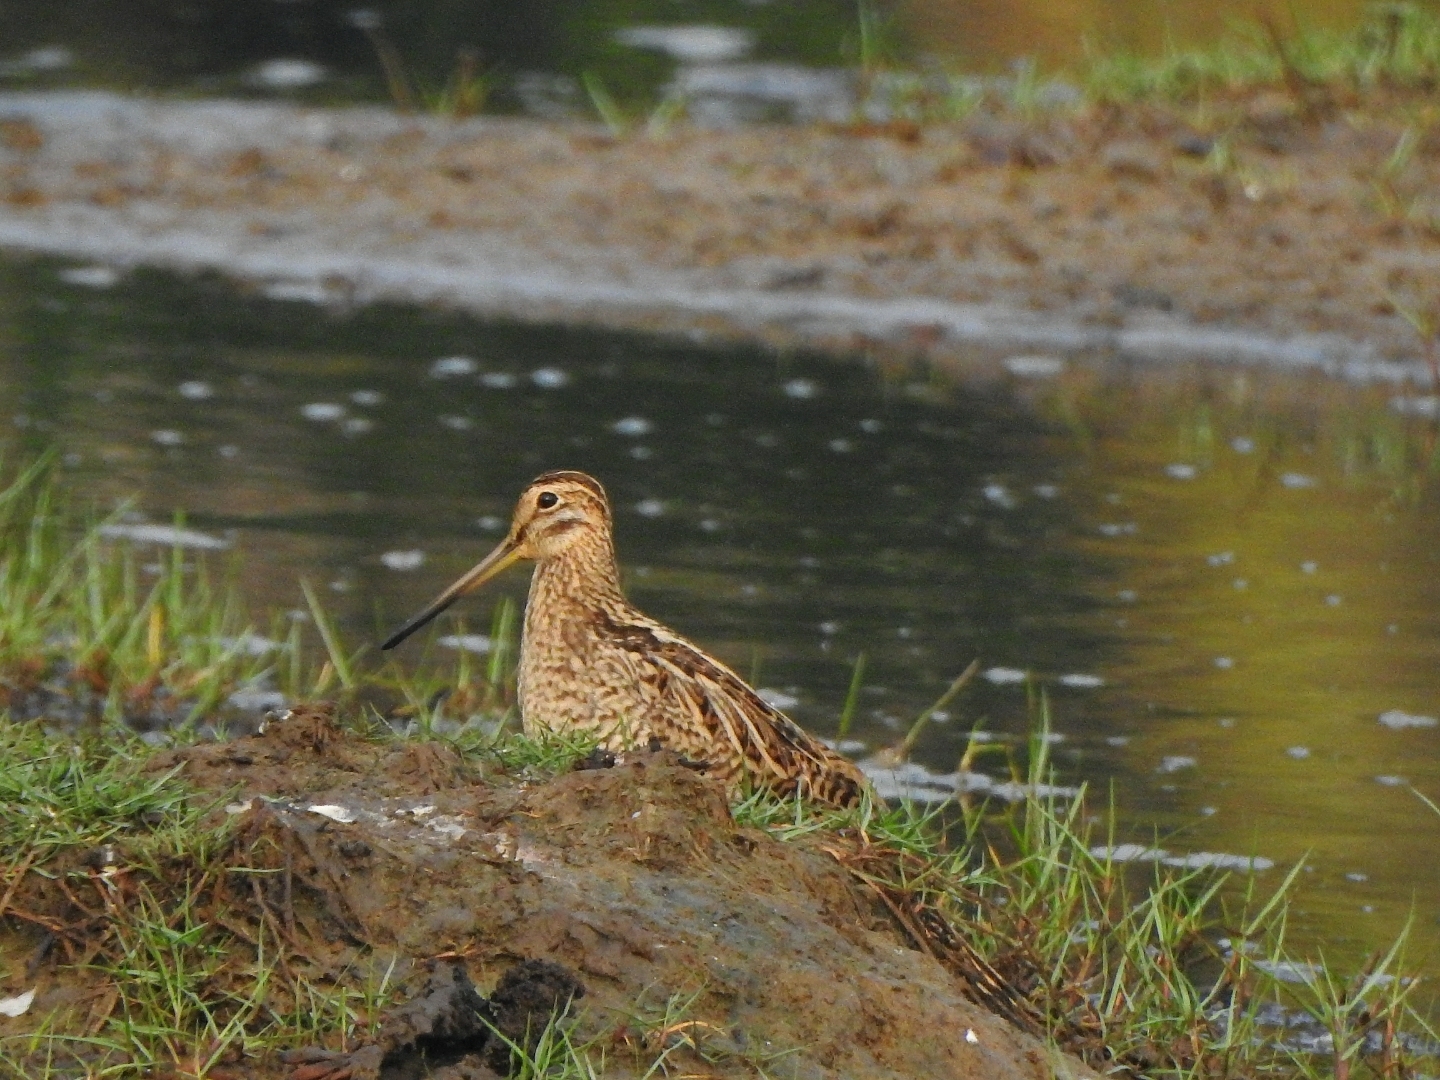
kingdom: Animalia
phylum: Chordata
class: Aves
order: Charadriiformes
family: Scolopacidae
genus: Gallinago
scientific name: Gallinago stenura
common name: Pin-tailed snipe
